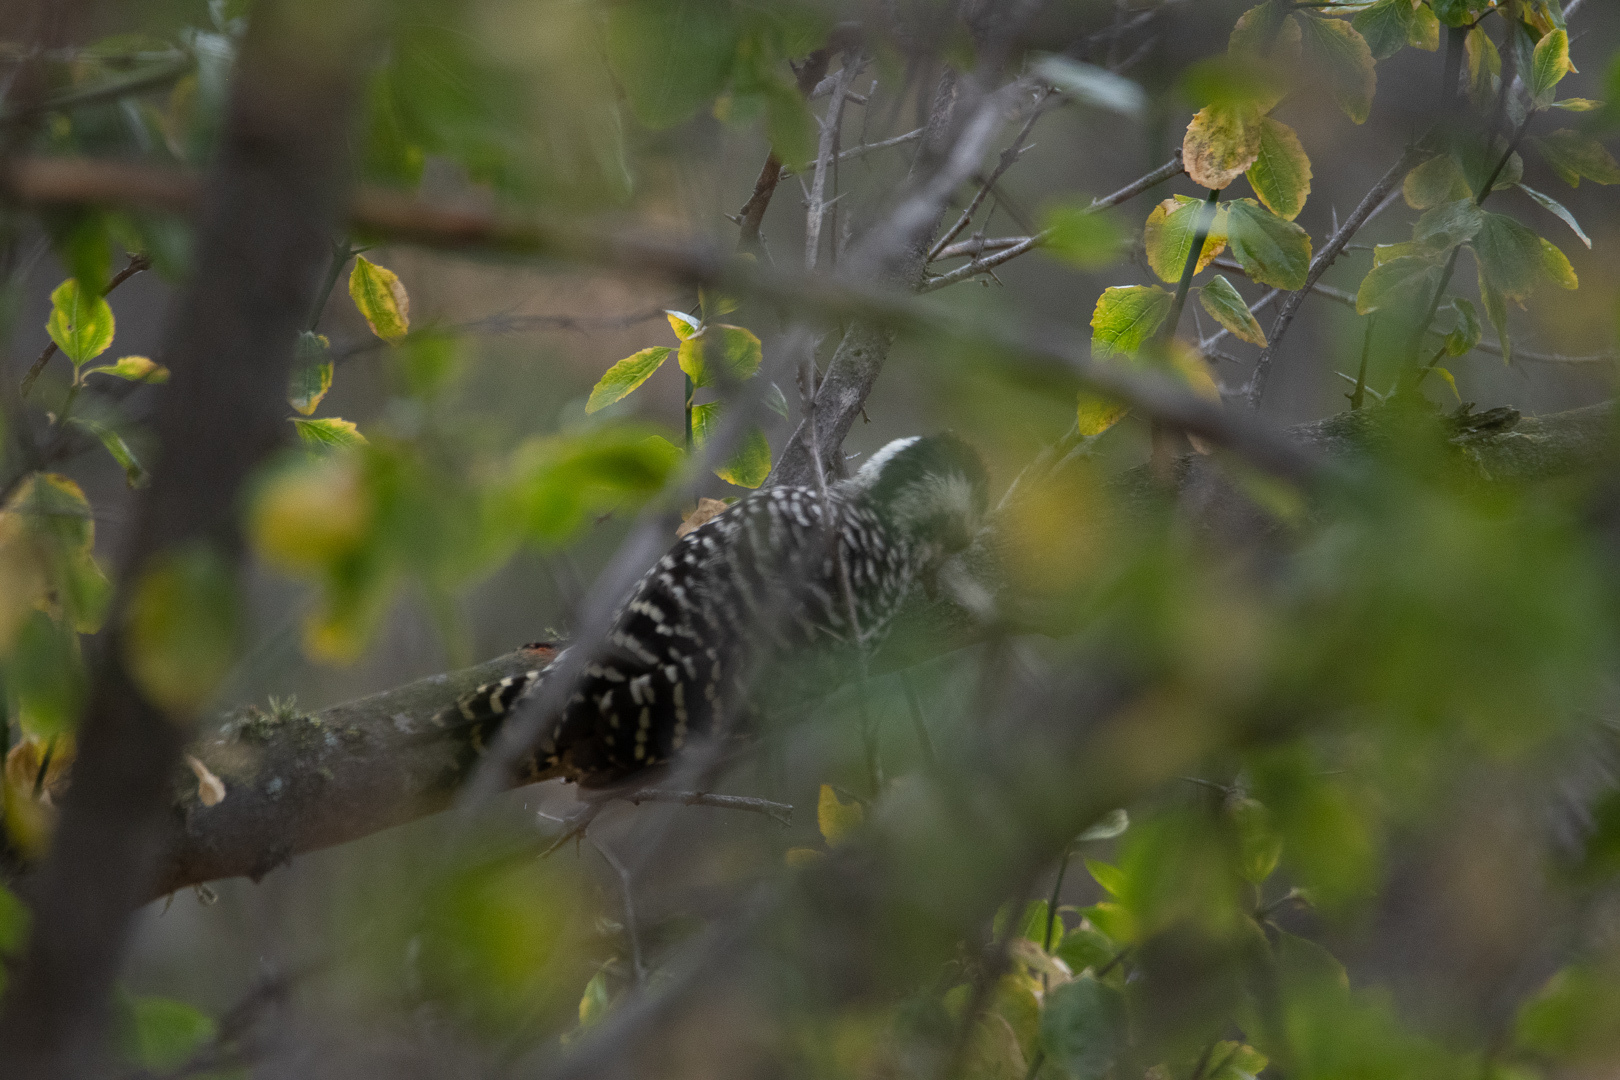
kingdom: Animalia
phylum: Chordata
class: Aves
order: Piciformes
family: Picidae
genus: Veniliornis
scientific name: Veniliornis lignarius
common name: Striped woodpecker
